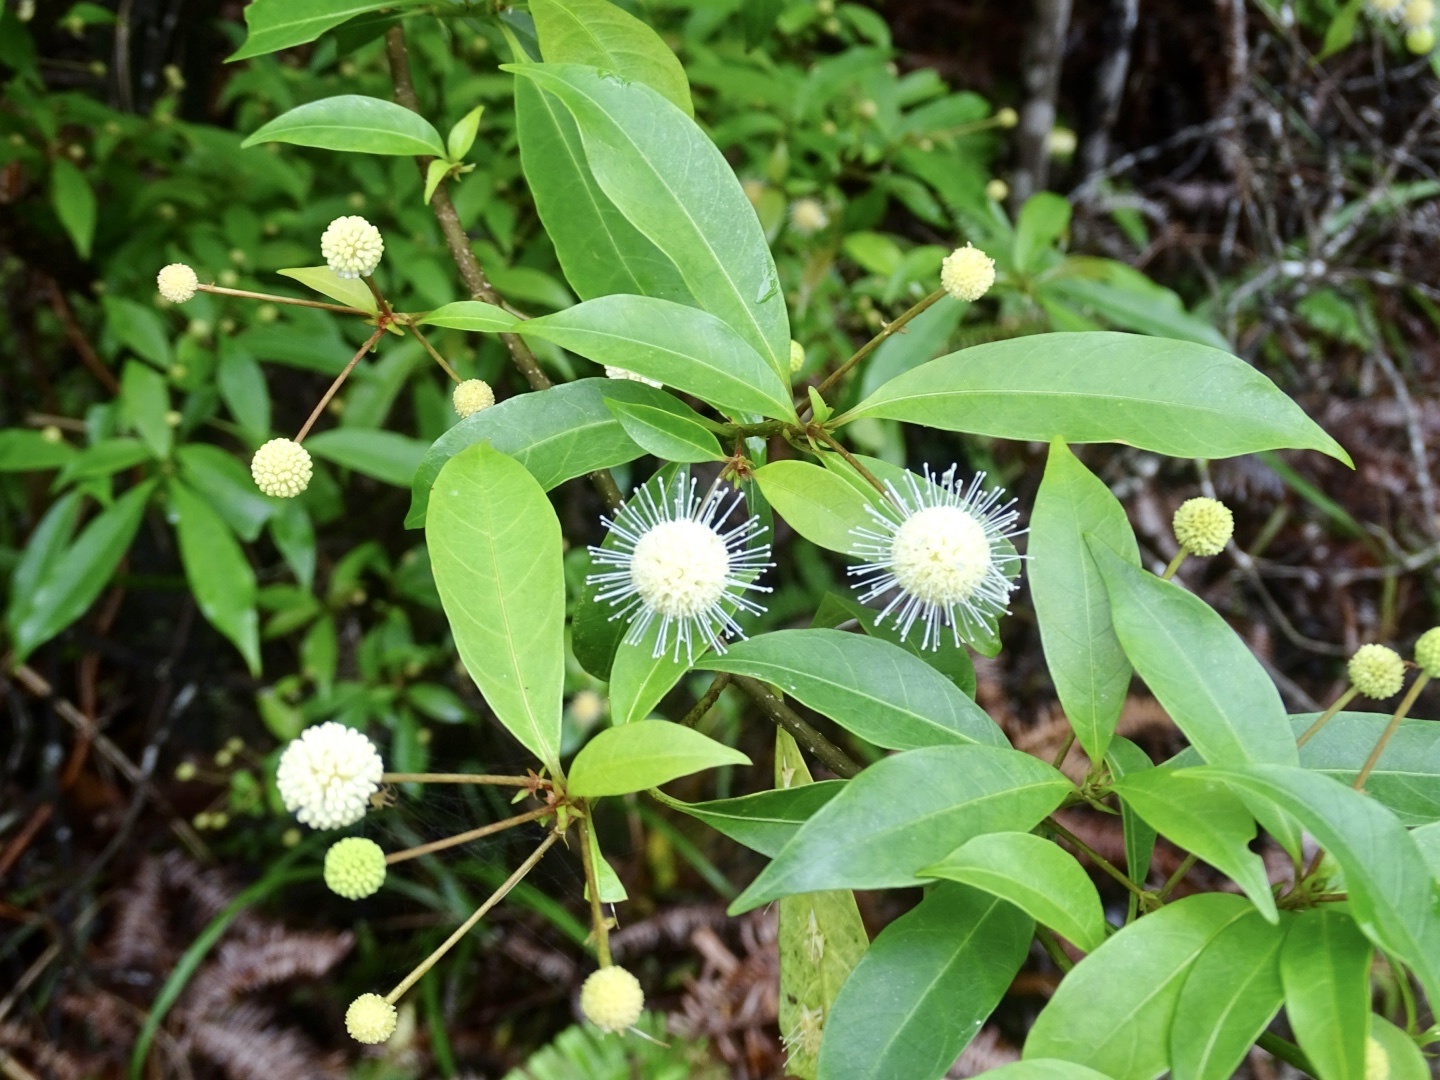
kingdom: Plantae
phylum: Tracheophyta
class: Magnoliopsida
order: Gentianales
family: Rubiaceae
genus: Adina
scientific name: Adina pilulifera
